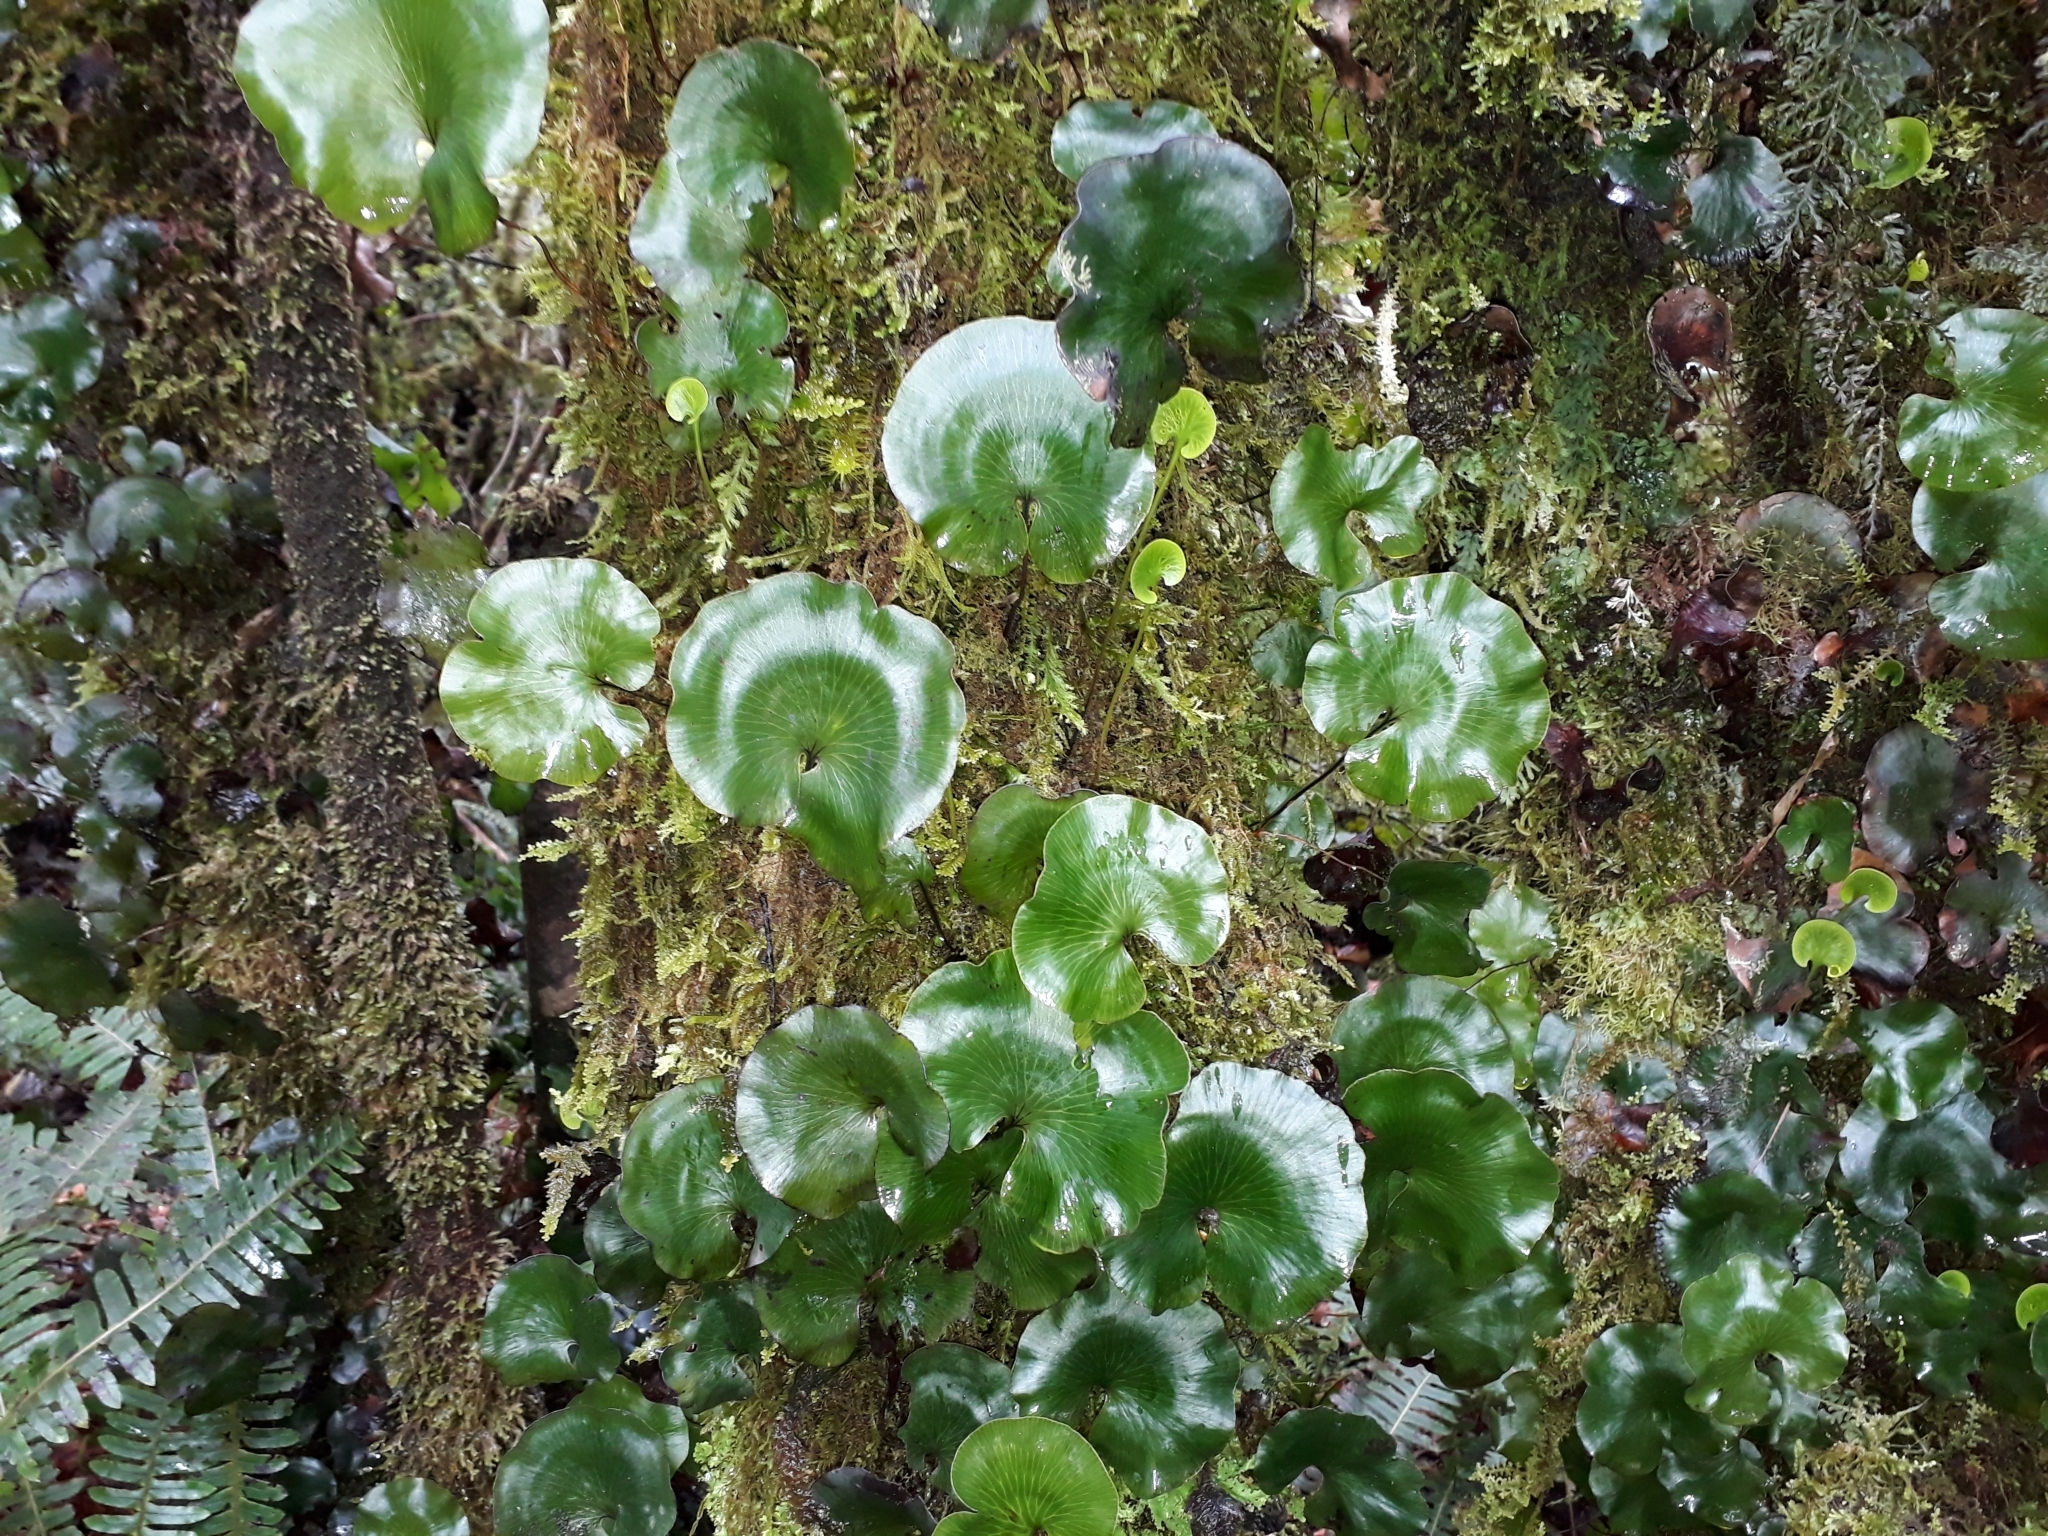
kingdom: Plantae
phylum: Tracheophyta
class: Polypodiopsida
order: Hymenophyllales
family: Hymenophyllaceae
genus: Hymenophyllum
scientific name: Hymenophyllum nephrophyllum
